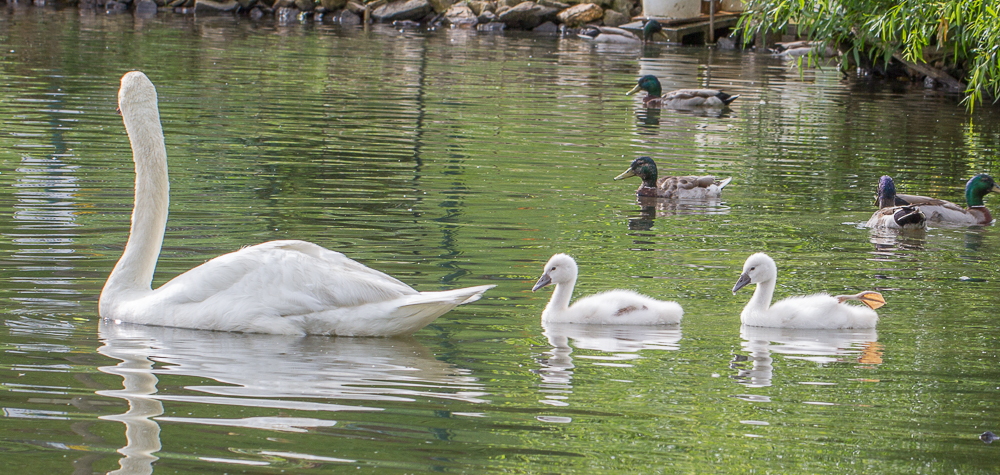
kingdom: Animalia
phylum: Chordata
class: Aves
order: Anseriformes
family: Anatidae
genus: Cygnus
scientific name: Cygnus olor
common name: Mute swan
